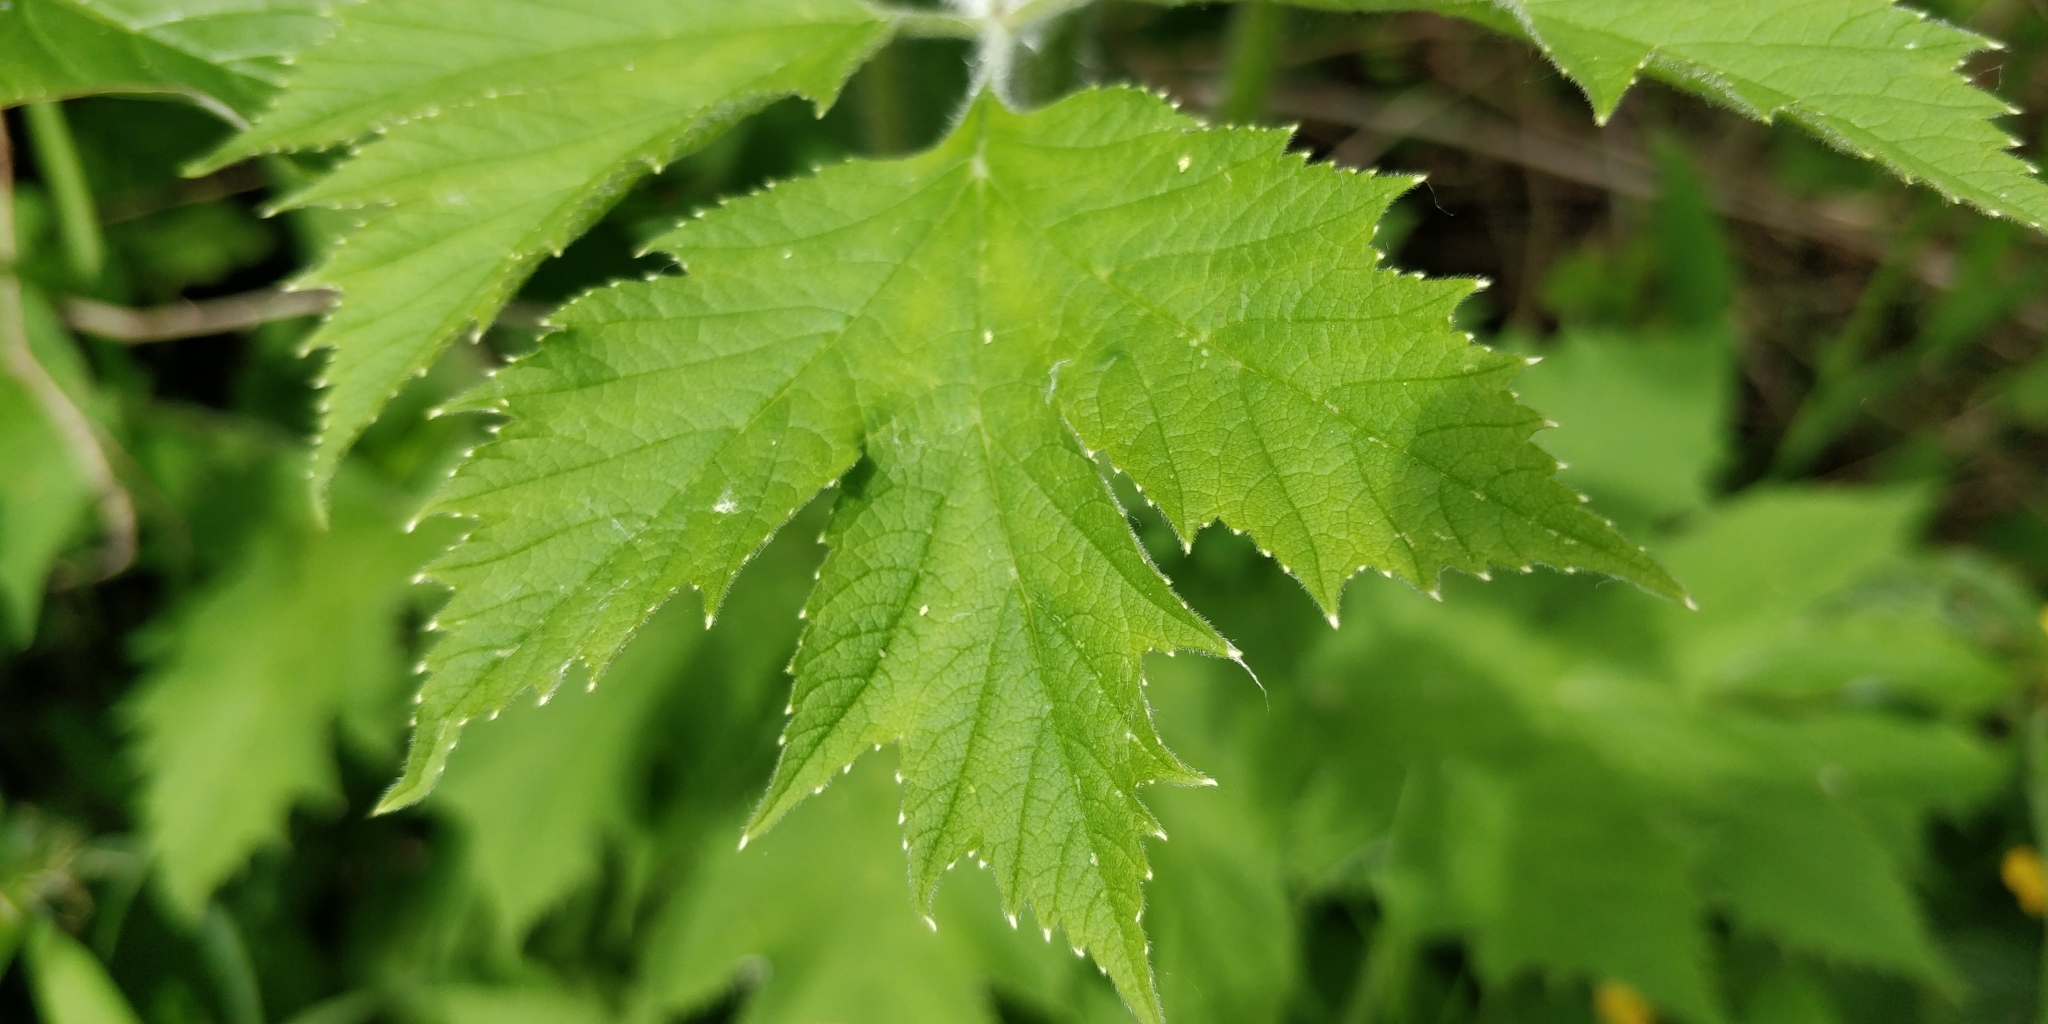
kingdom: Plantae
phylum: Tracheophyta
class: Magnoliopsida
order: Apiales
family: Apiaceae
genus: Heracleum
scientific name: Heracleum maximum
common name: American cow parsnip
